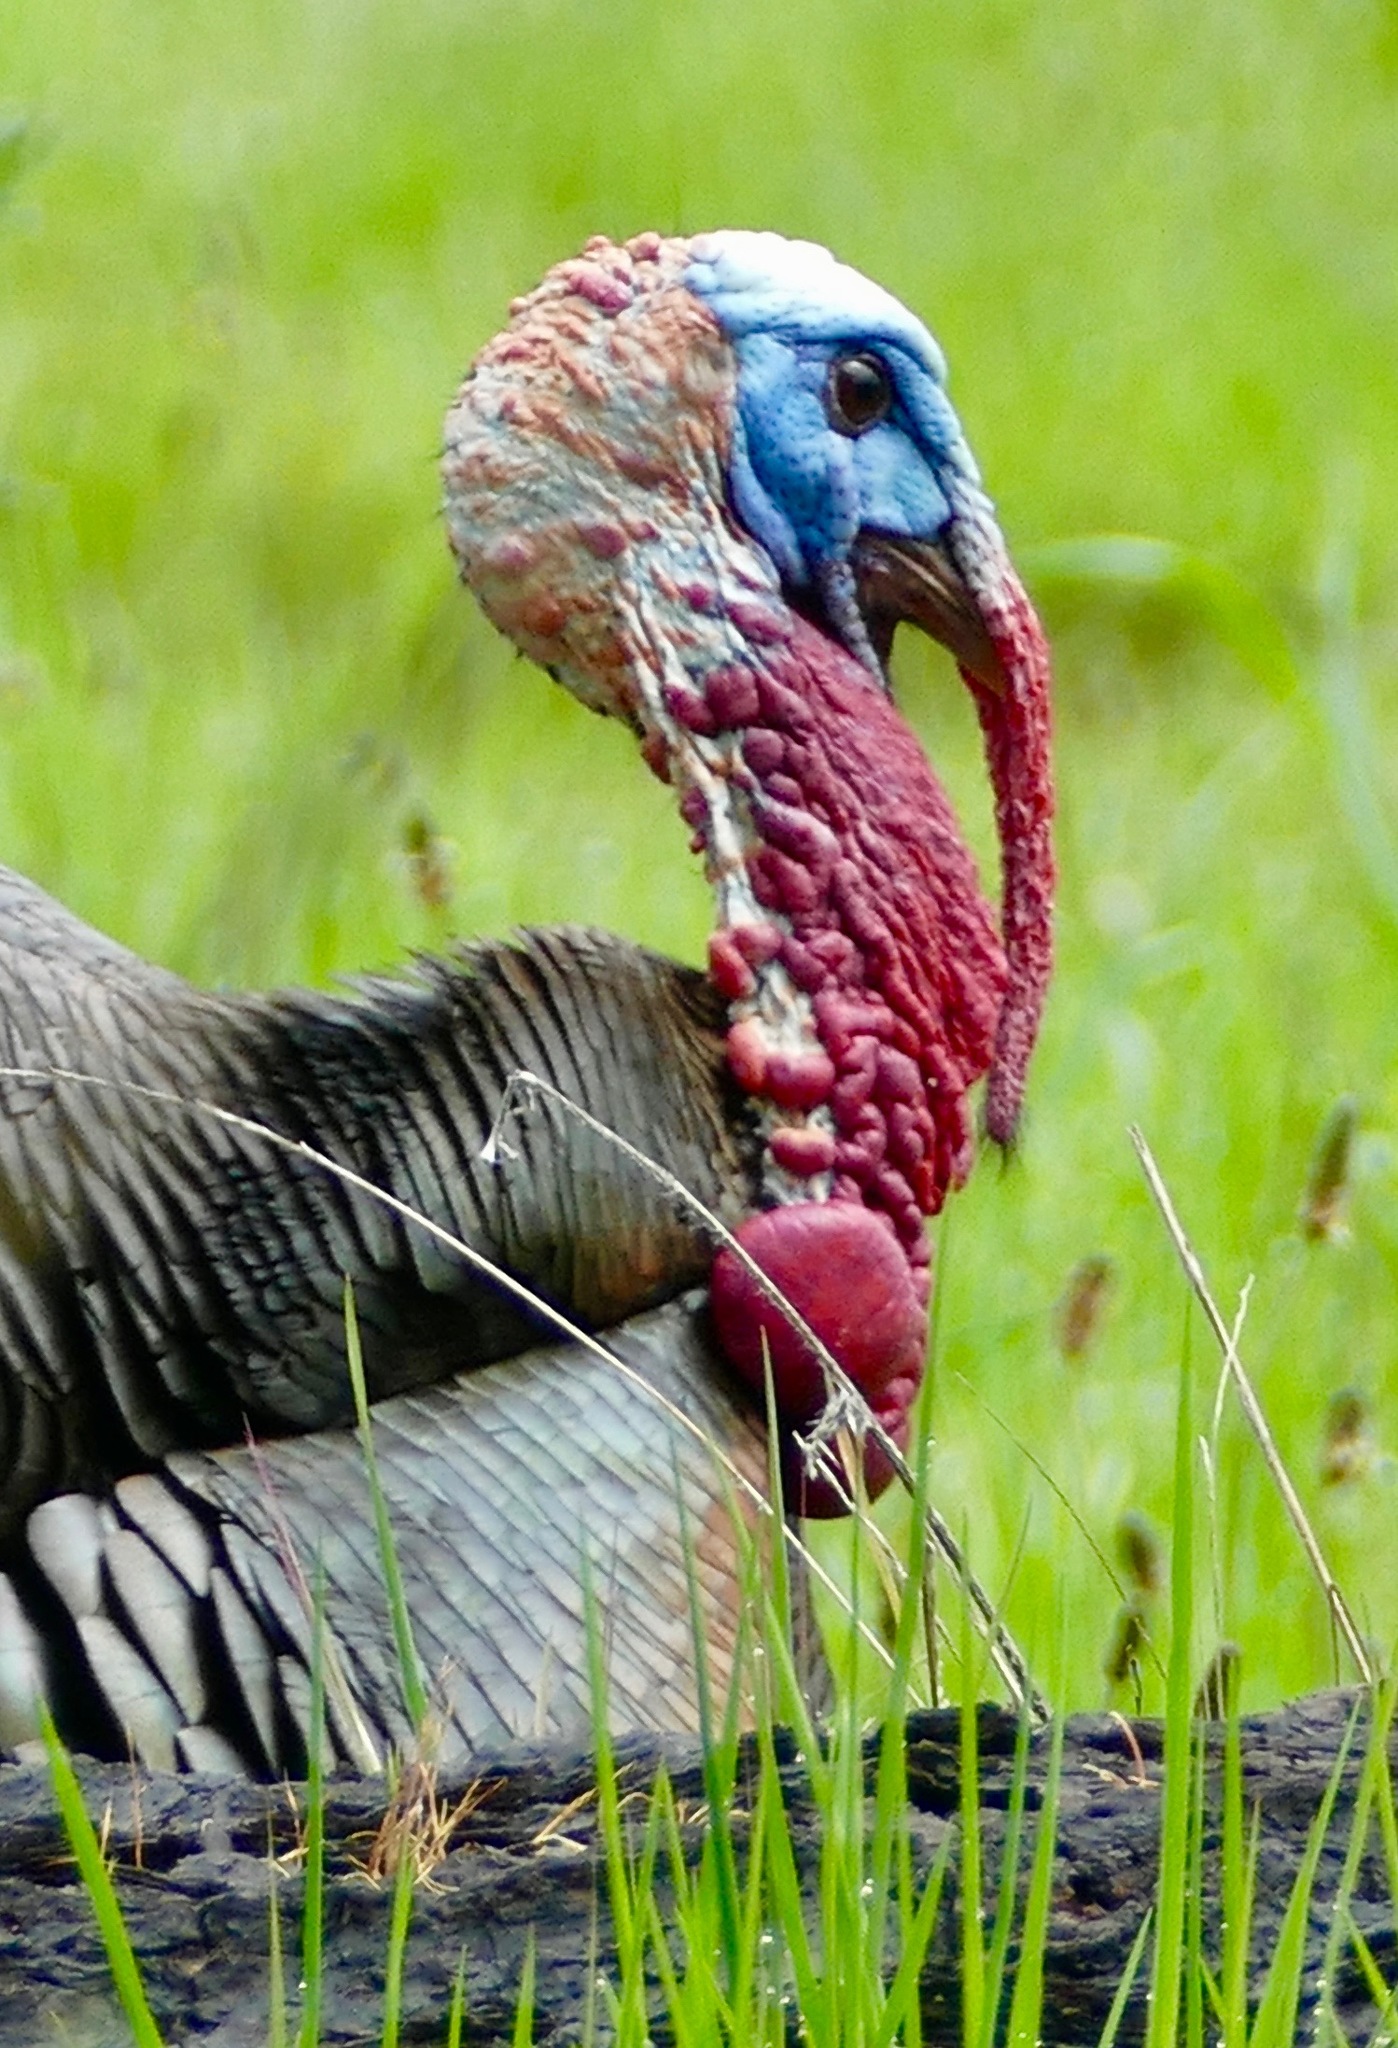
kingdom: Animalia
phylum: Chordata
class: Aves
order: Galliformes
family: Phasianidae
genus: Meleagris
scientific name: Meleagris gallopavo
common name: Wild turkey
